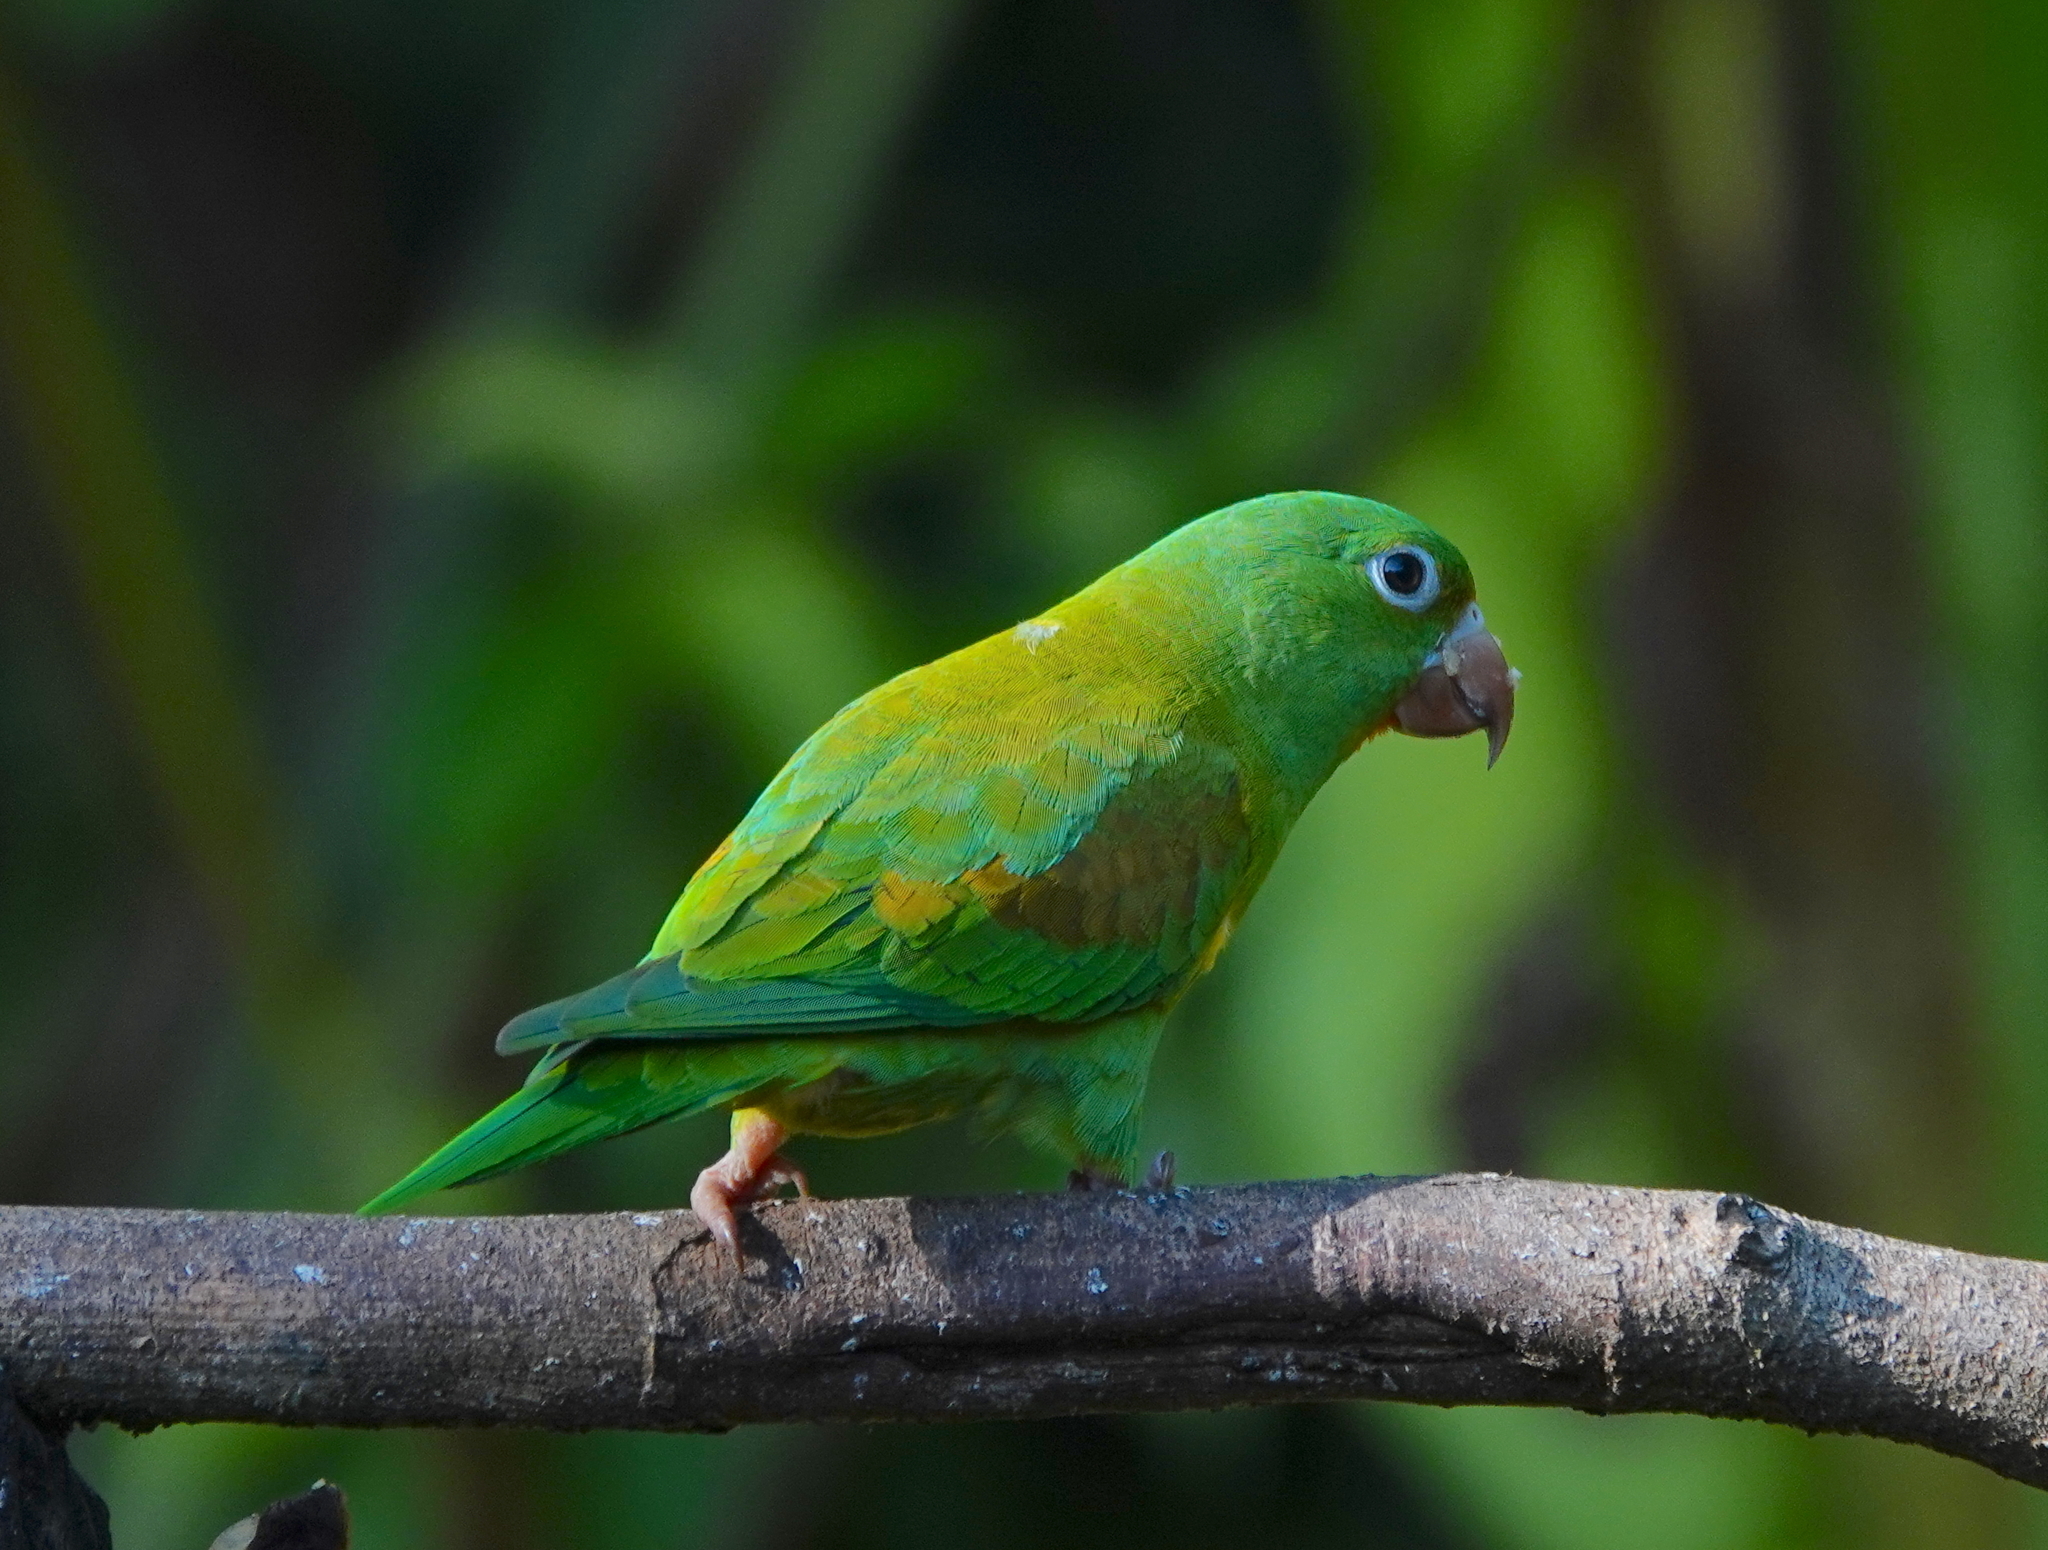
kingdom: Animalia
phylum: Chordata
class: Aves
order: Psittaciformes
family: Psittacidae
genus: Brotogeris
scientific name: Brotogeris jugularis
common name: Orange-chinned parakeet
